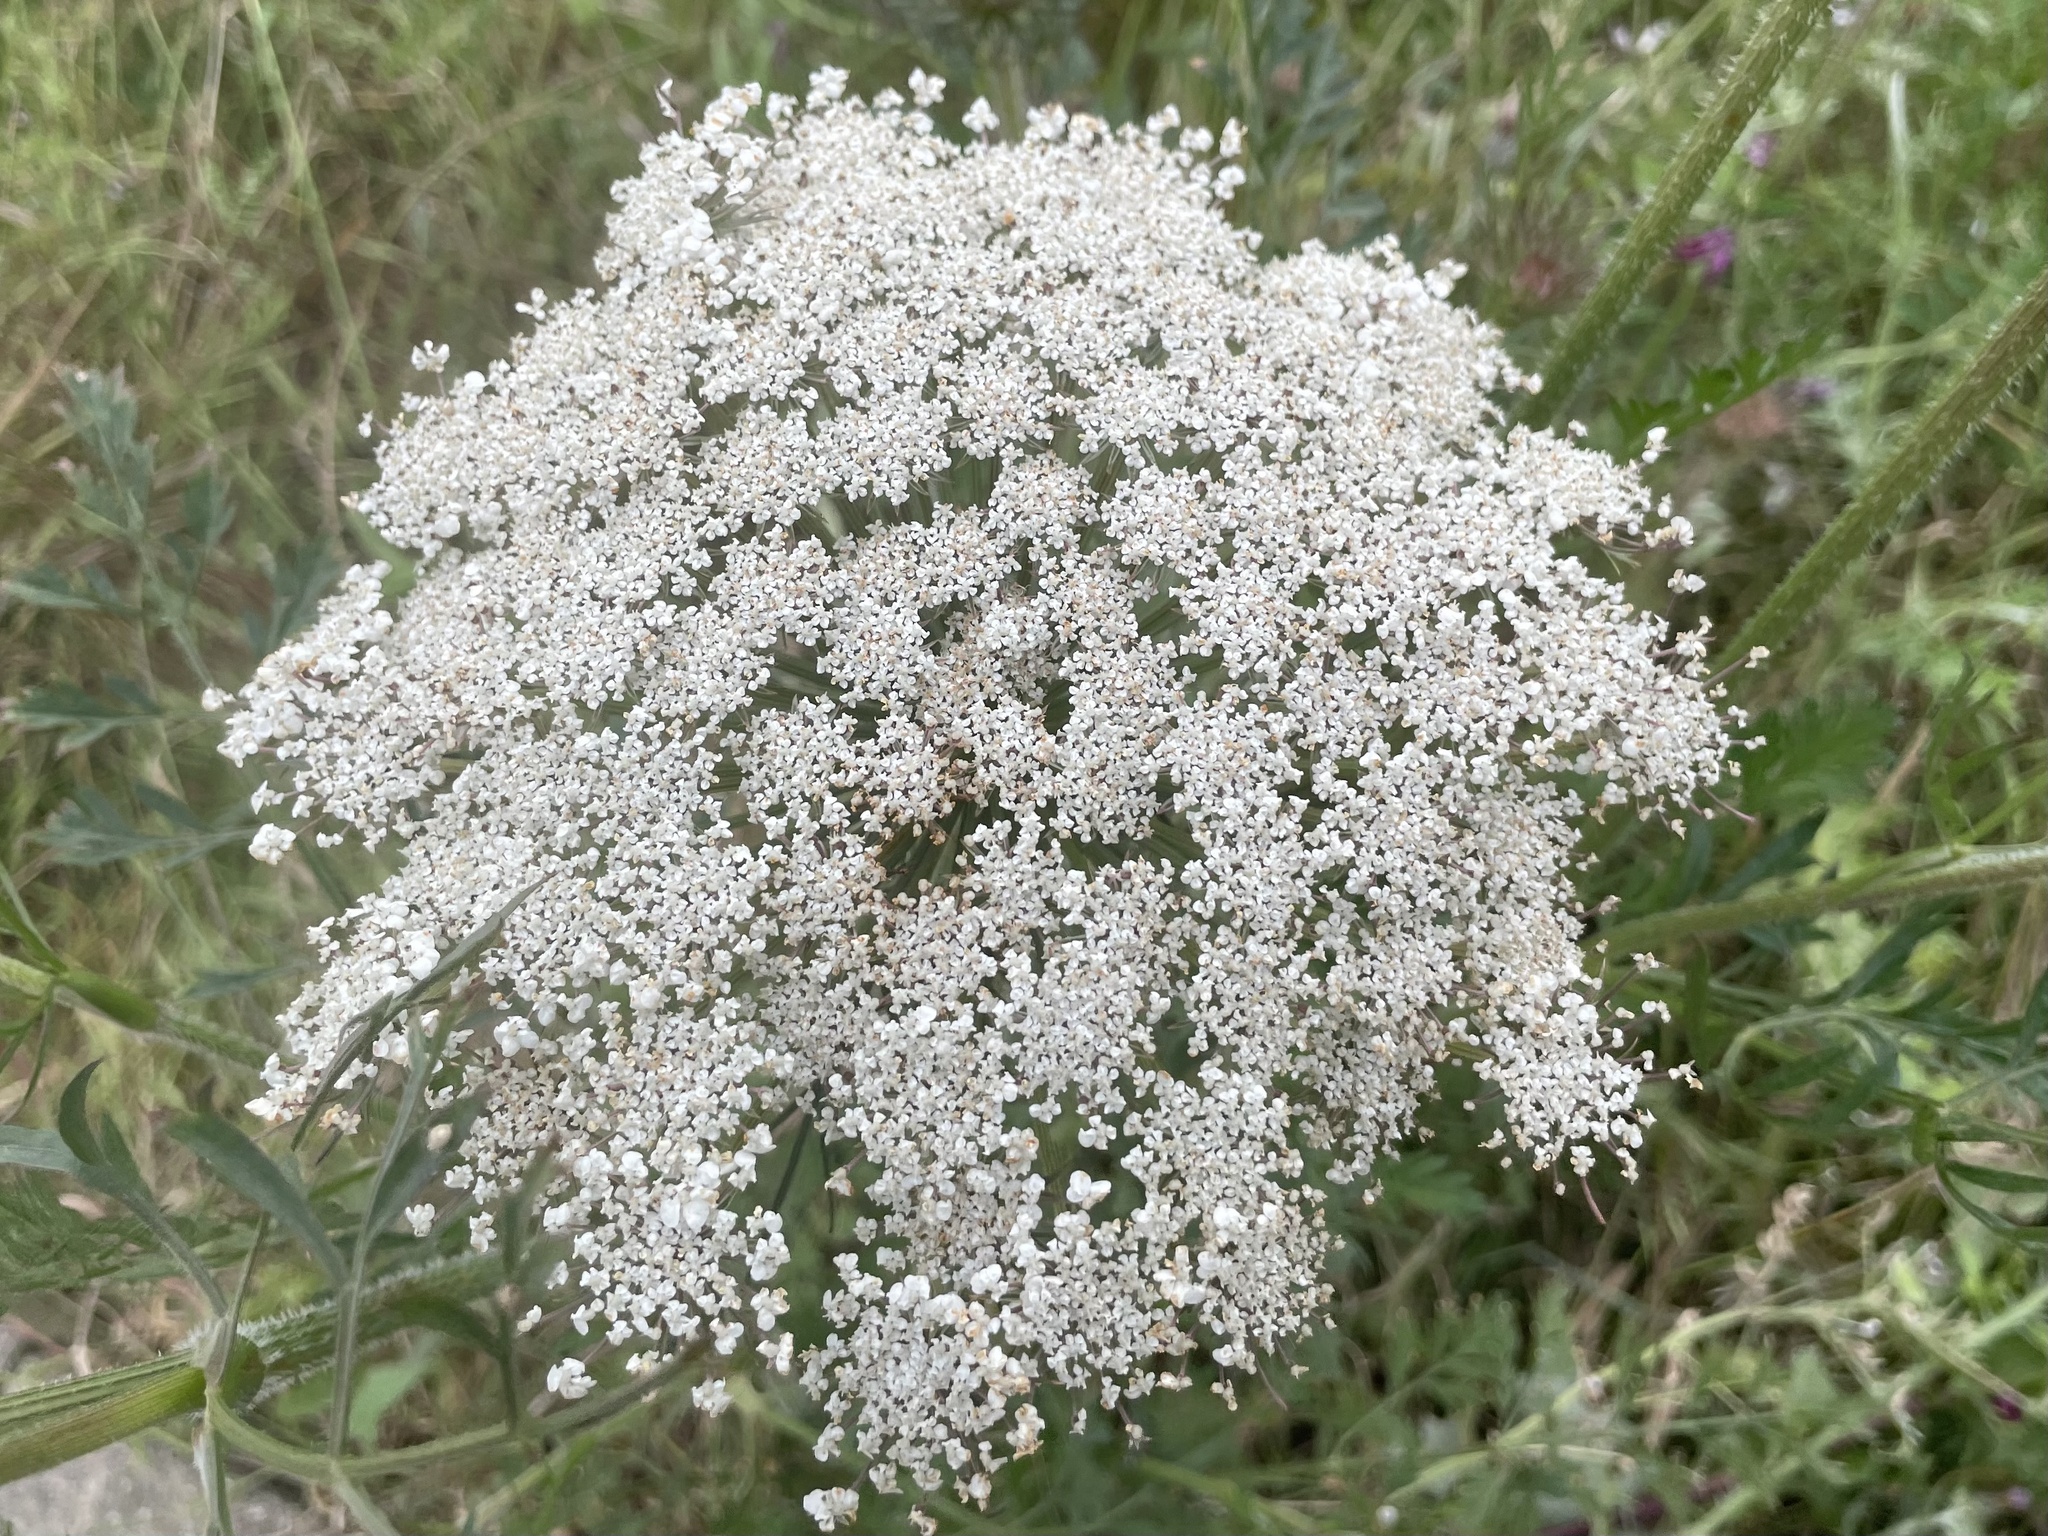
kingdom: Plantae
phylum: Tracheophyta
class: Magnoliopsida
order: Apiales
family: Apiaceae
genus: Daucus
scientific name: Daucus carota
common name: Wild carrot
